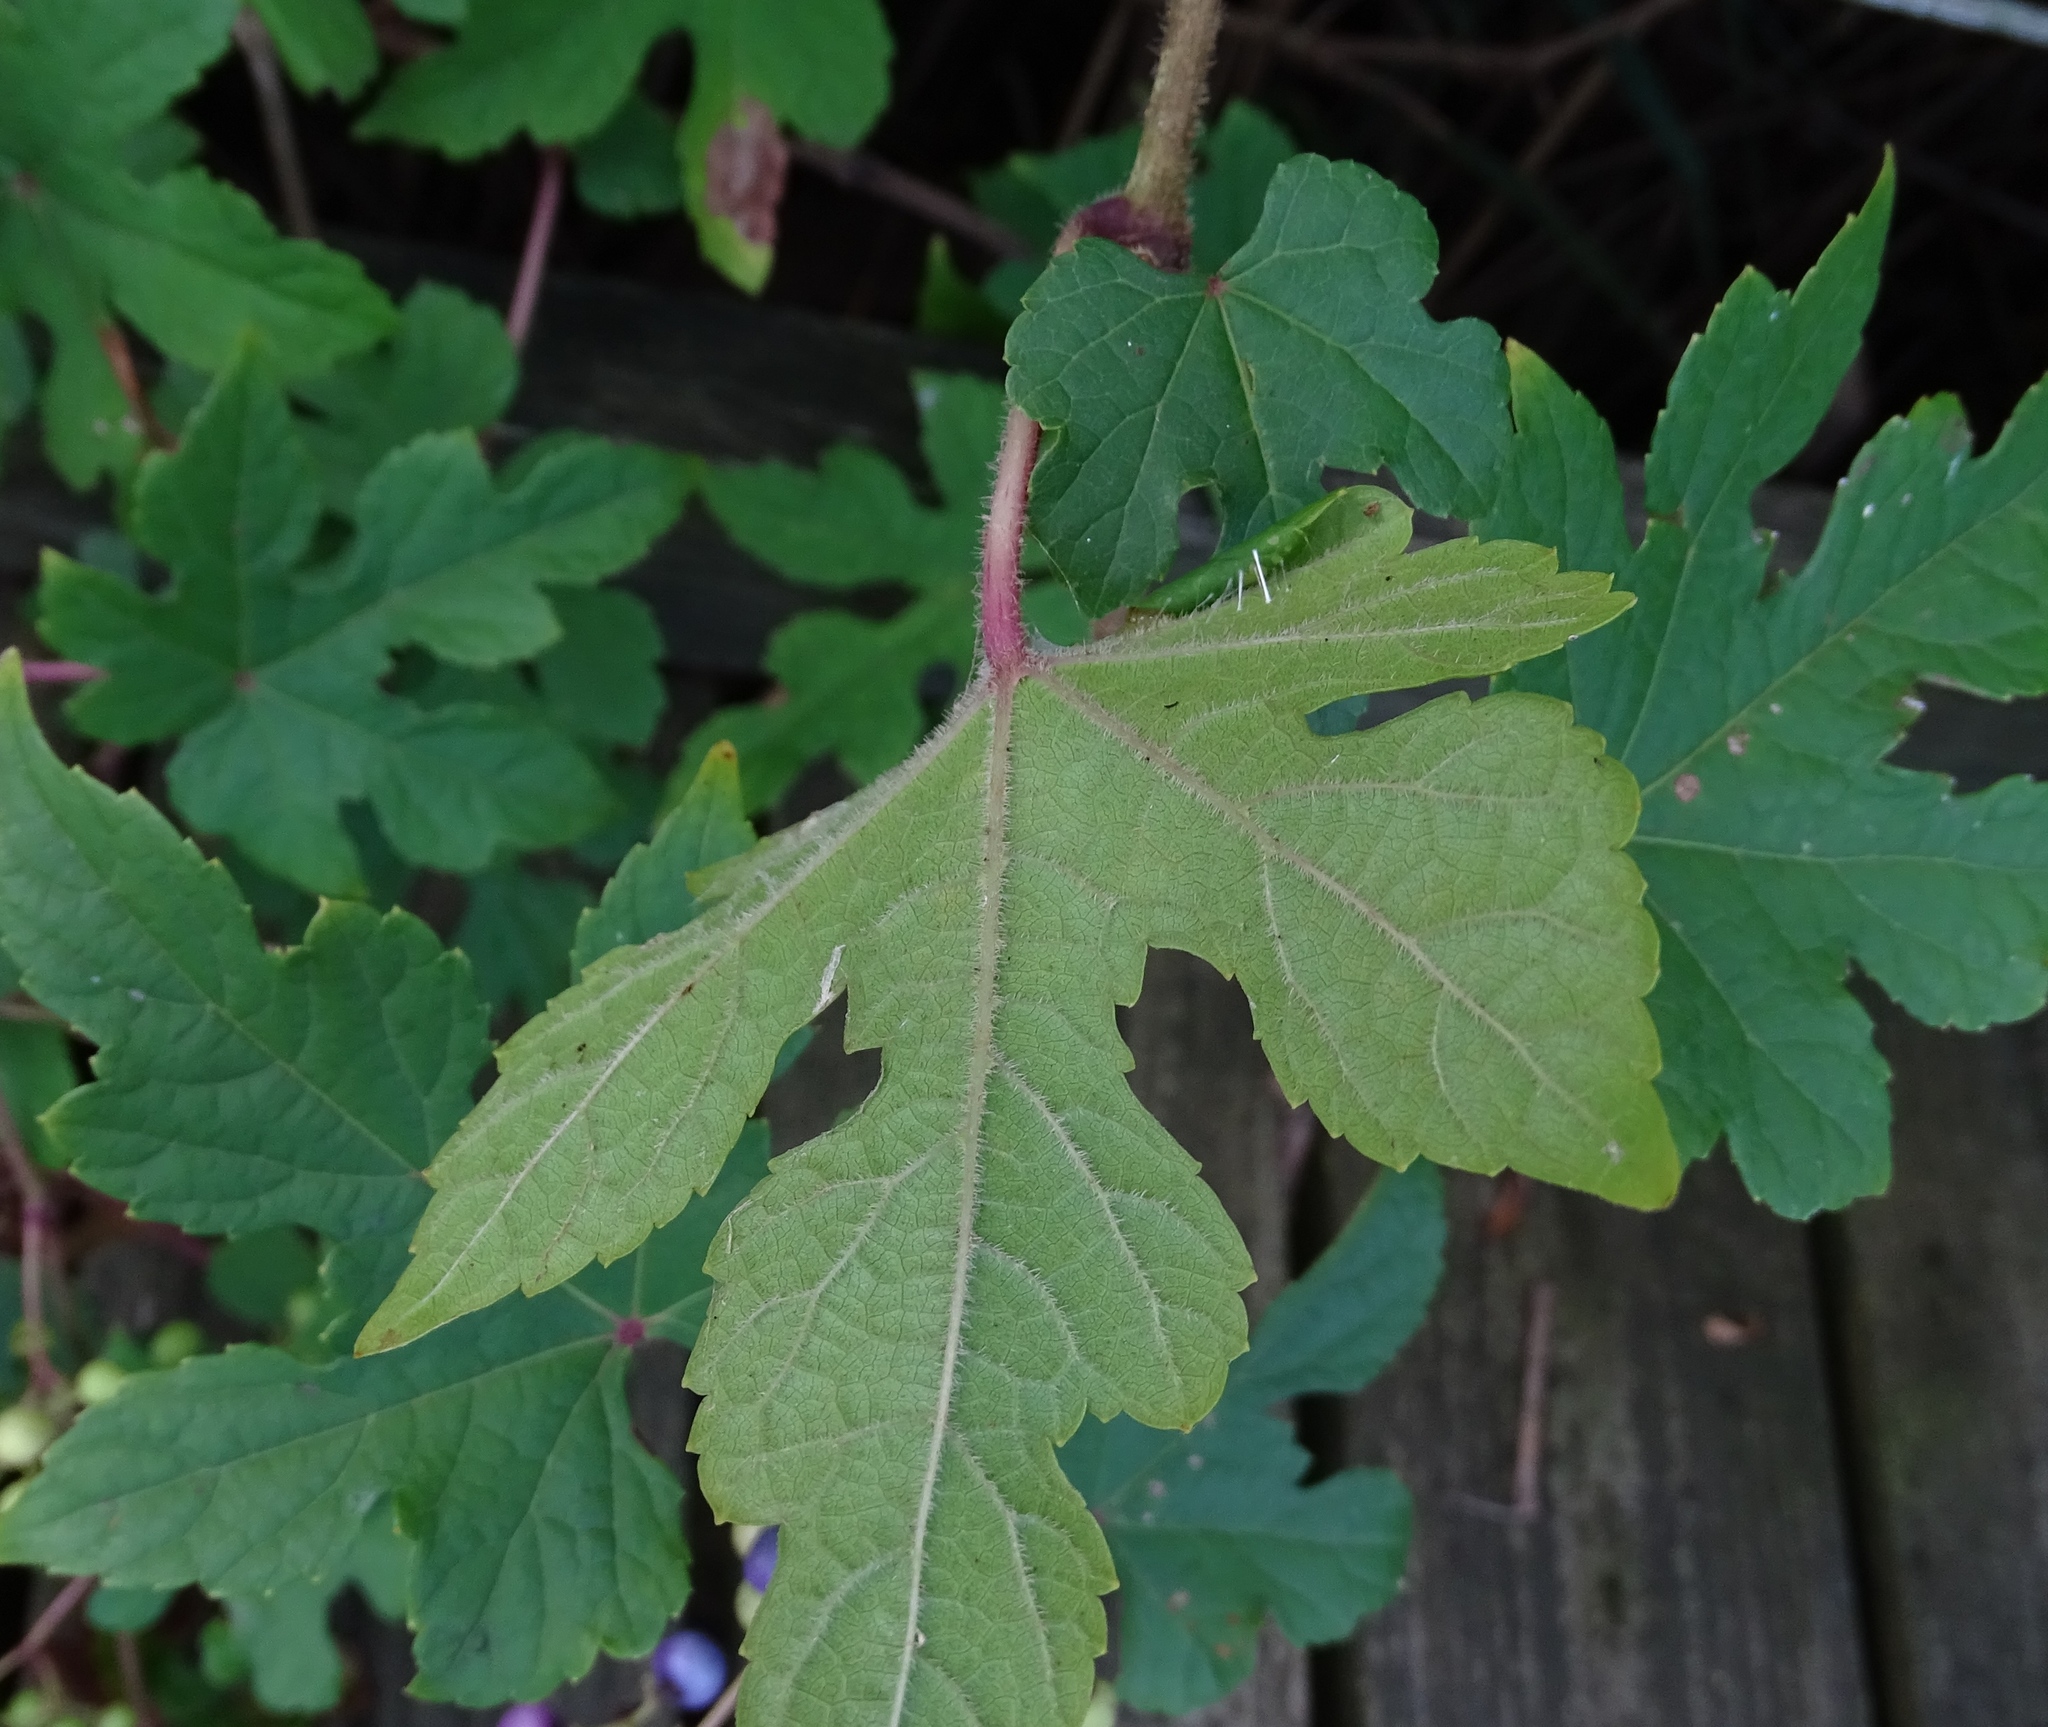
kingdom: Plantae
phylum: Tracheophyta
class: Magnoliopsida
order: Vitales
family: Vitaceae
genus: Ampelopsis
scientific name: Ampelopsis glandulosa
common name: Amur peppervine
